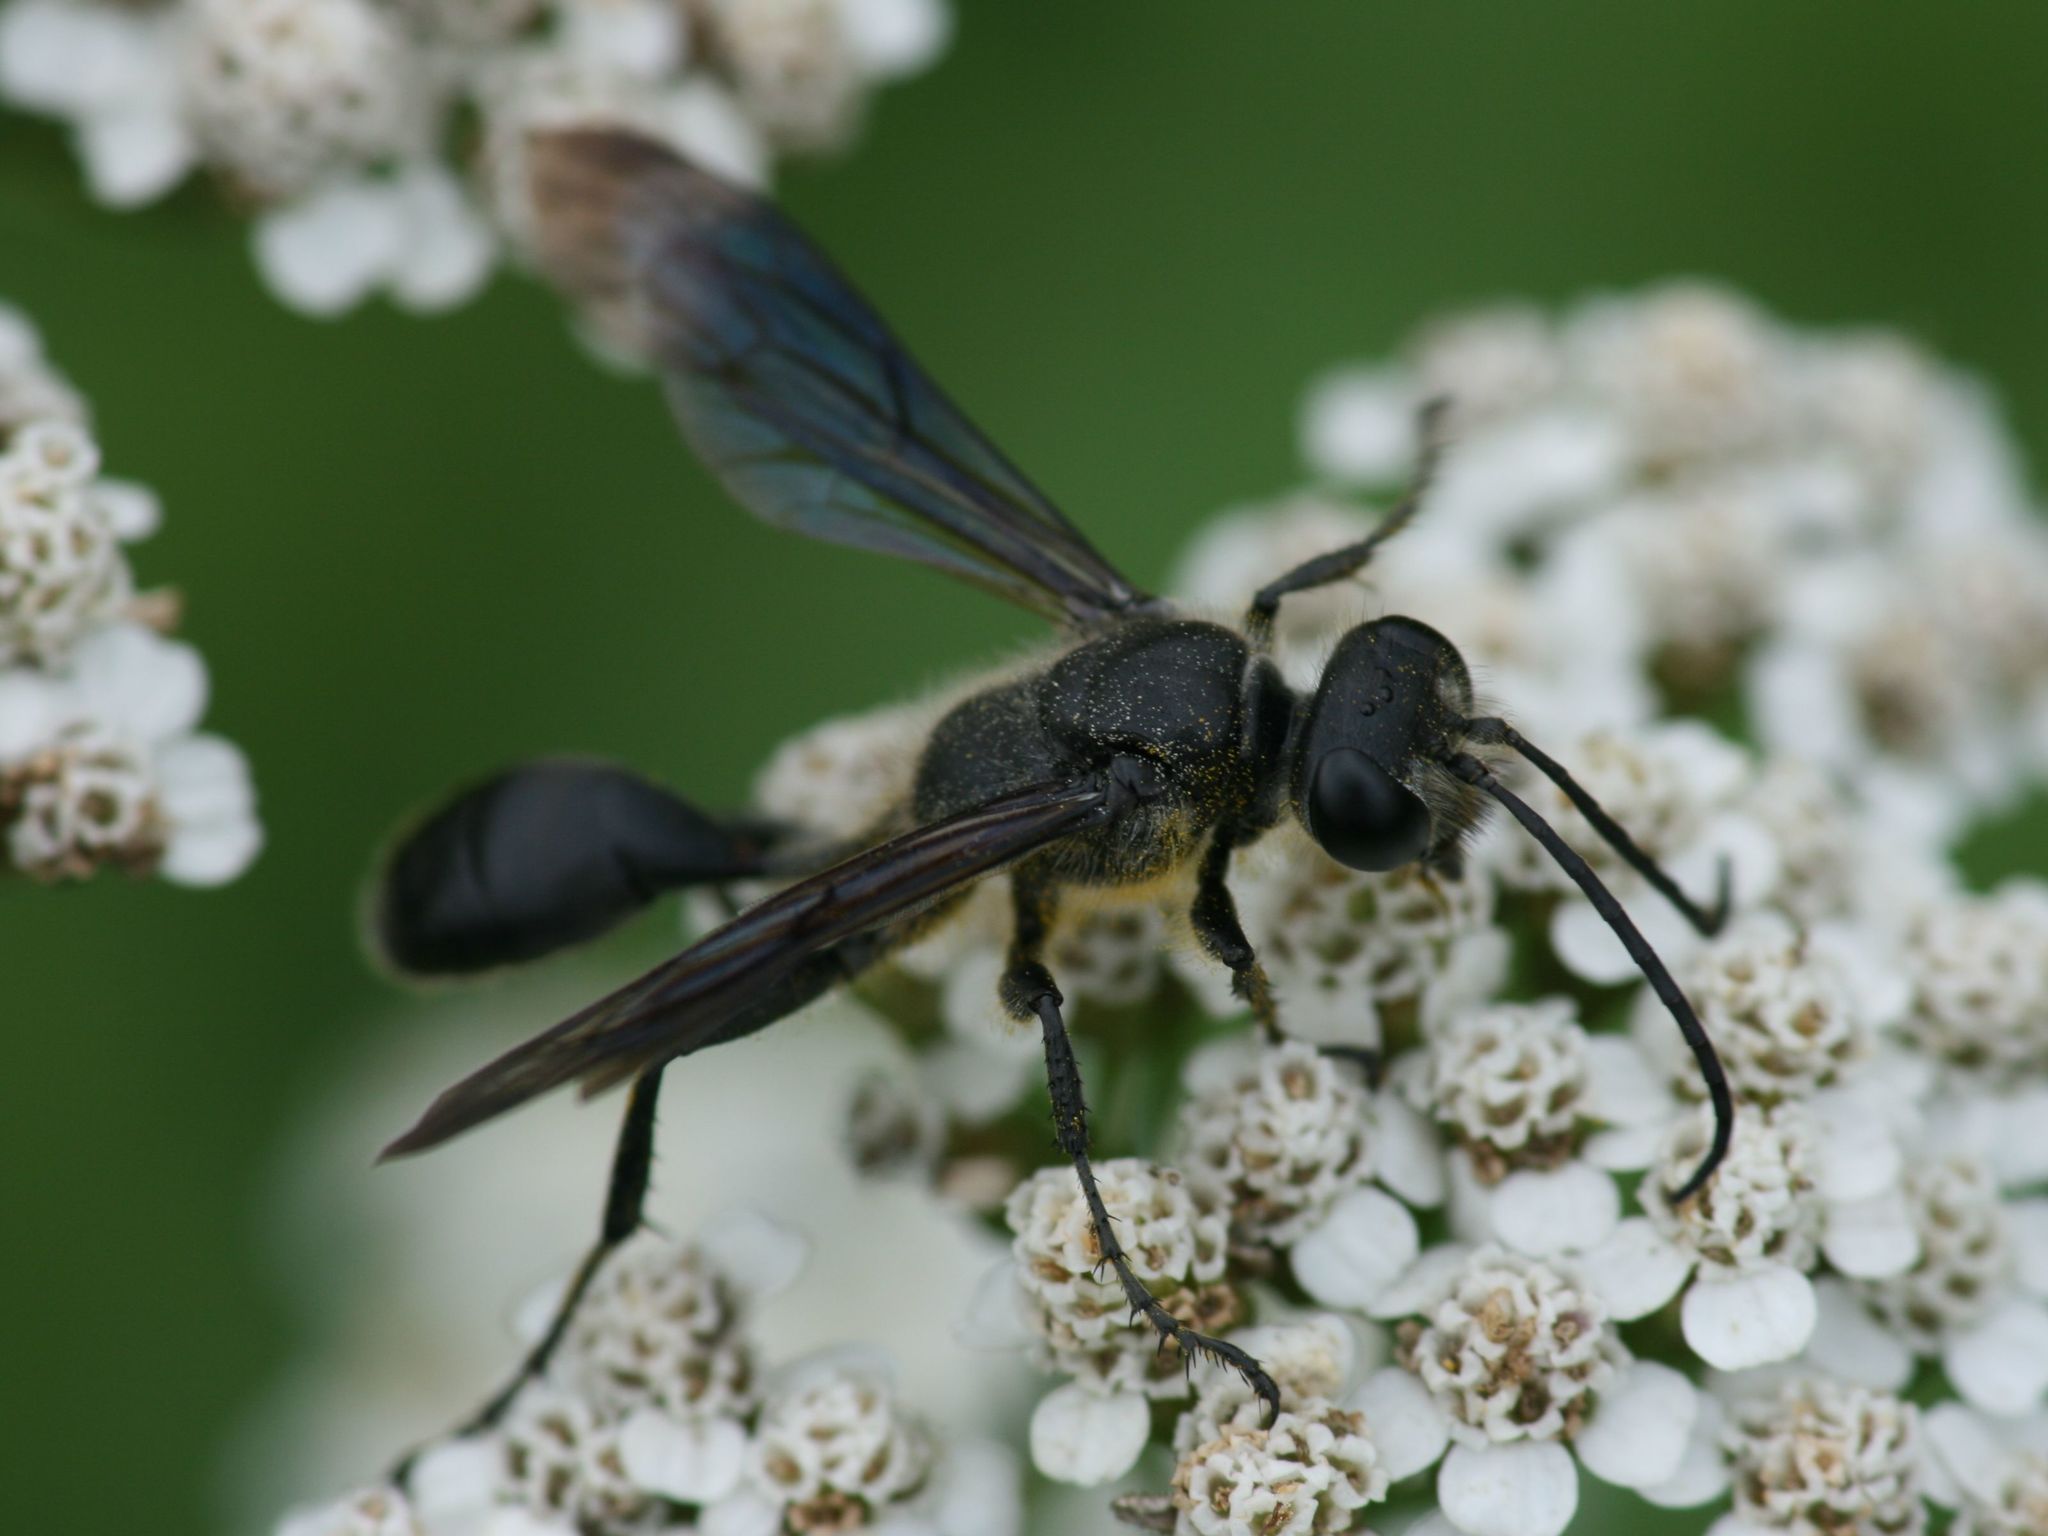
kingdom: Animalia
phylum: Arthropoda
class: Insecta
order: Hymenoptera
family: Sphecidae
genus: Isodontia
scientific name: Isodontia mexicana
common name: Mud dauber
